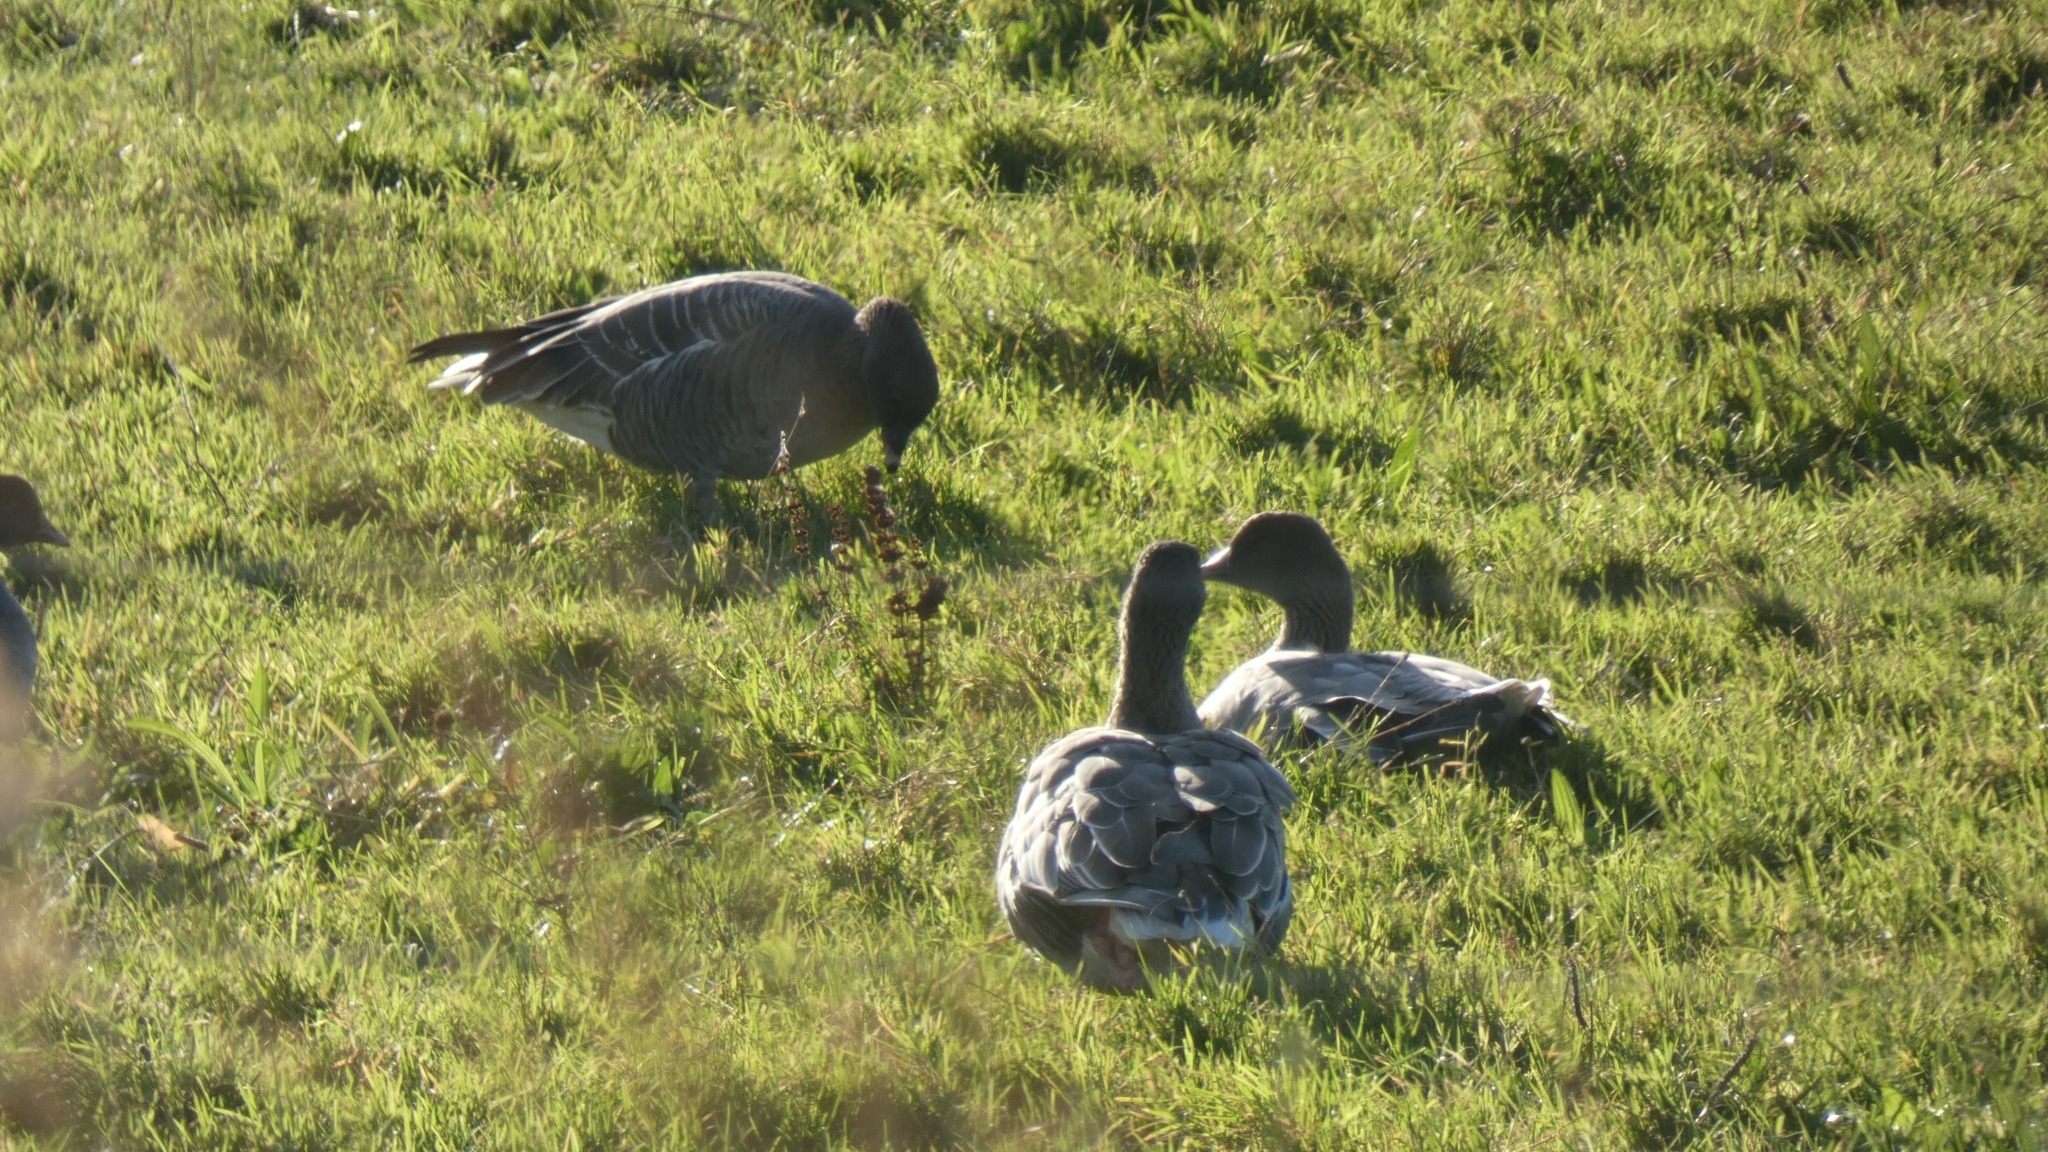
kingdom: Animalia
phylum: Chordata
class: Aves
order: Anseriformes
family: Anatidae
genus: Anser
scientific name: Anser brachyrhynchus
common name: Pink-footed goose
